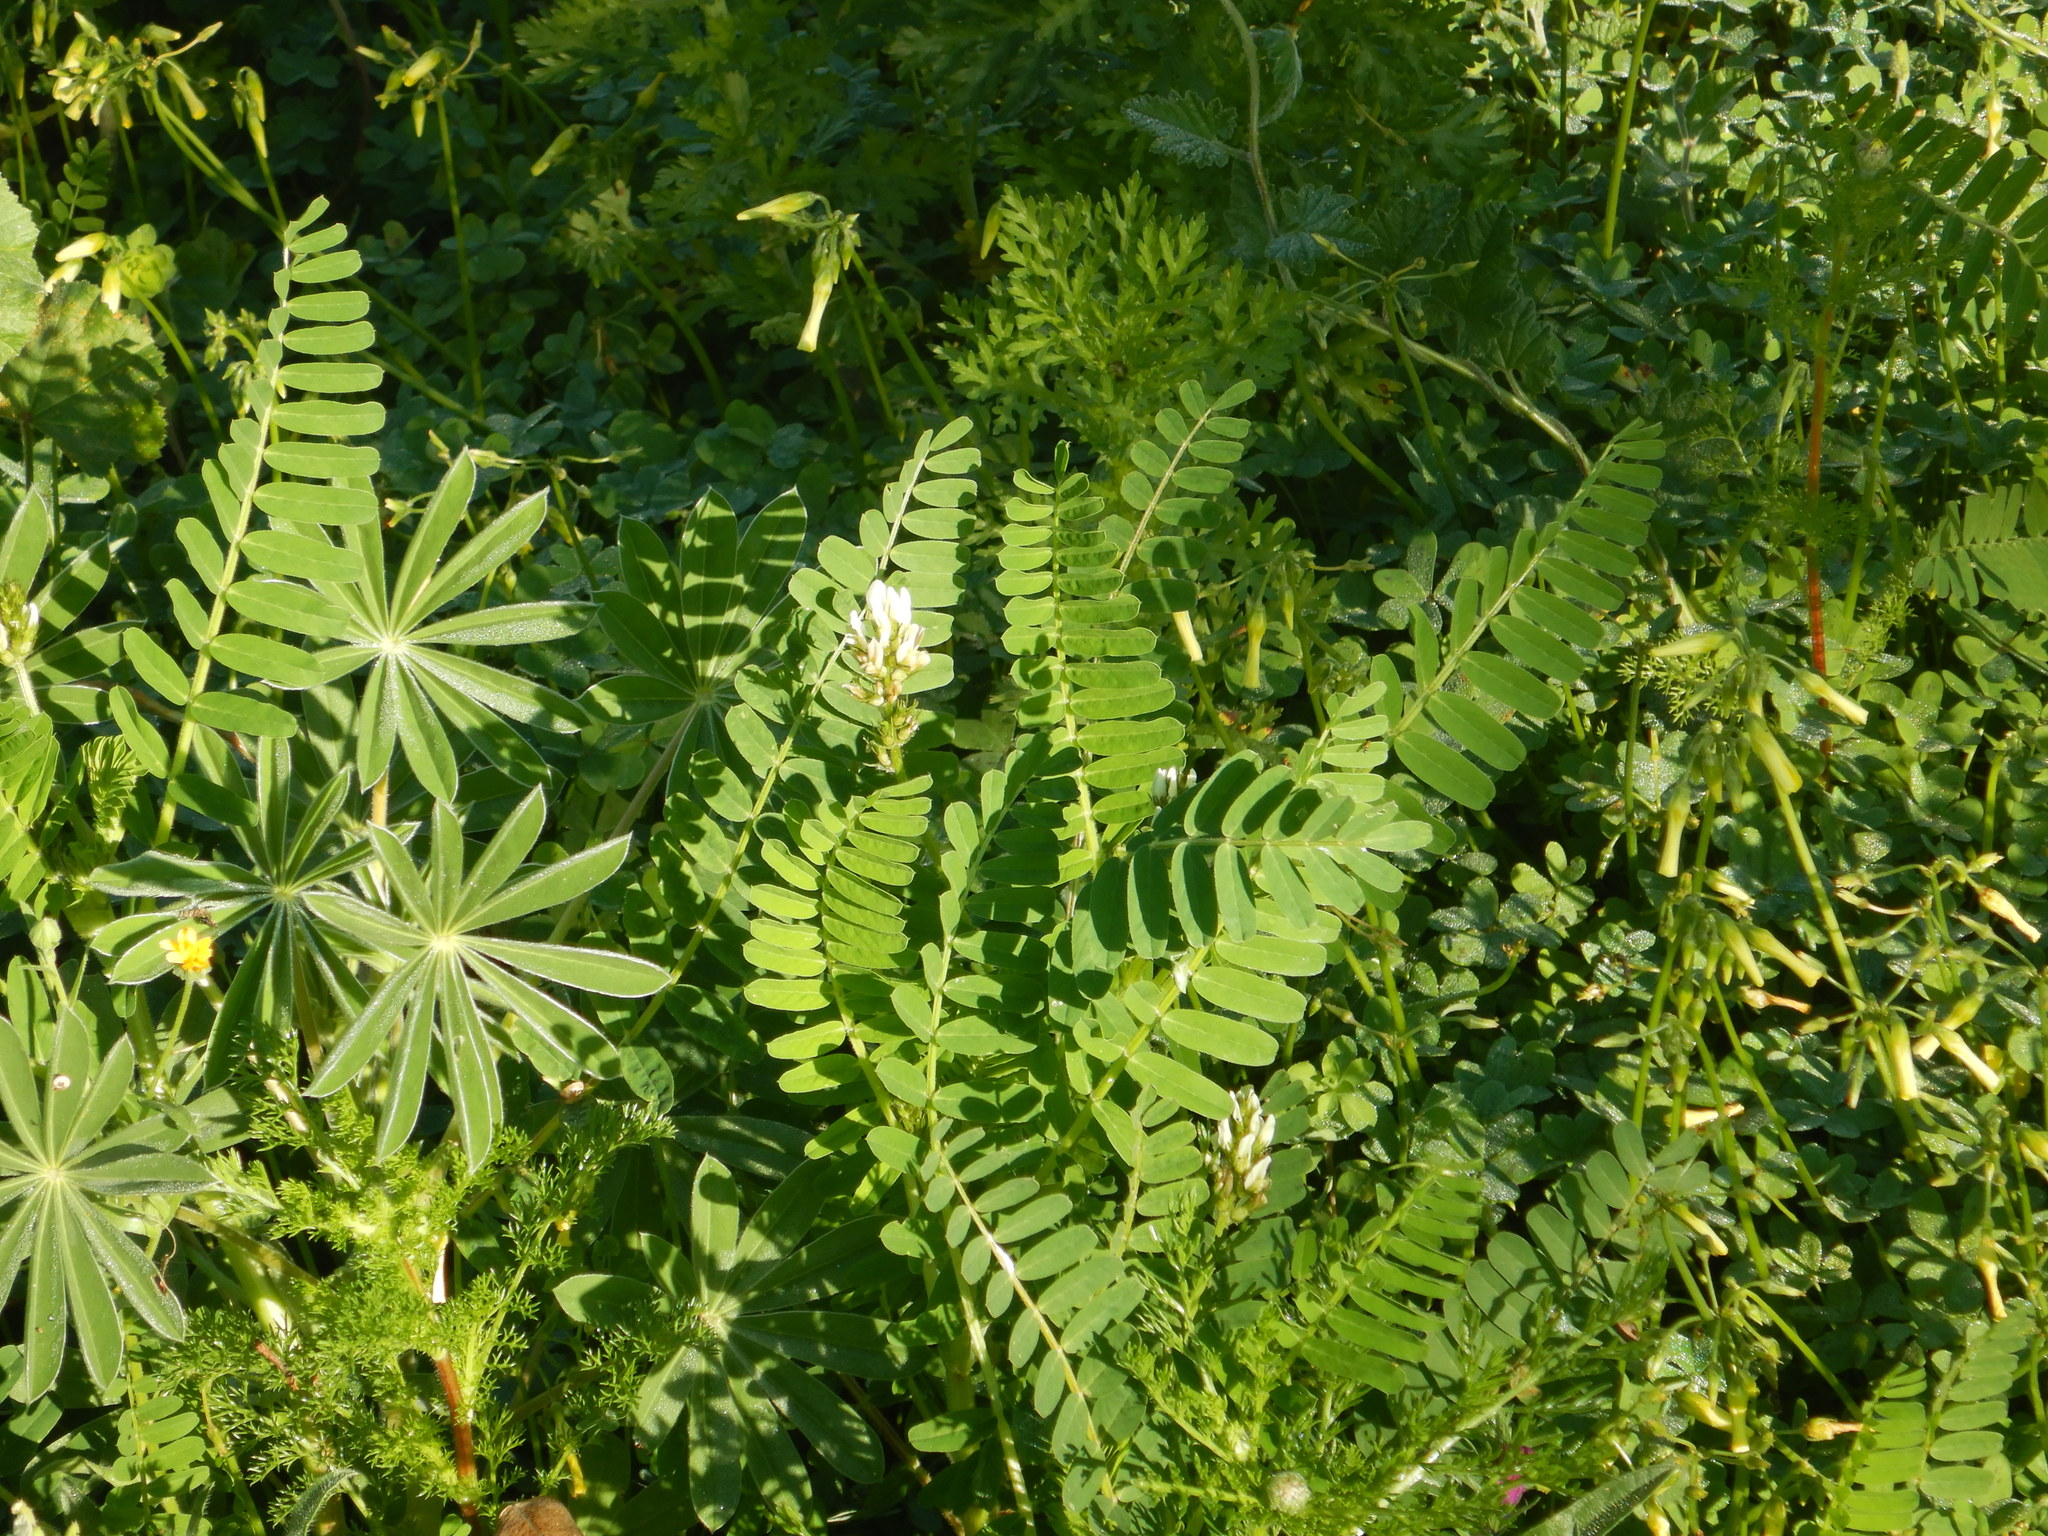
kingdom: Plantae
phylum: Tracheophyta
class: Magnoliopsida
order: Fabales
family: Fabaceae
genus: Astragalus
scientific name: Astragalus boeticus
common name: Milk-vetch
